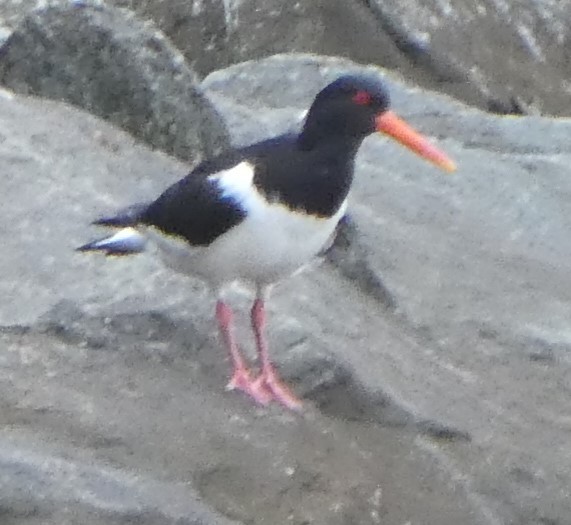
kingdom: Animalia
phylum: Chordata
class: Aves
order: Charadriiformes
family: Haematopodidae
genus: Haematopus
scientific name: Haematopus ostralegus
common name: Eurasian oystercatcher
